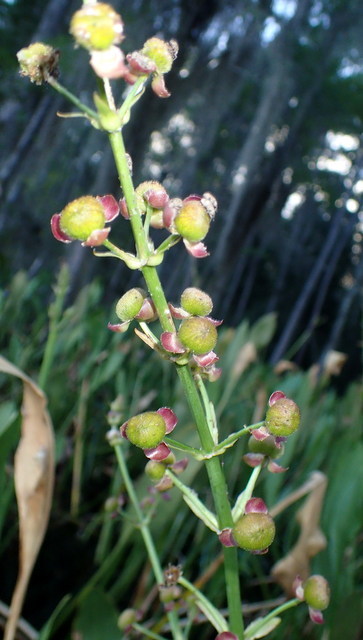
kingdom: Plantae
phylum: Tracheophyta
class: Liliopsida
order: Alismatales
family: Alismataceae
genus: Sagittaria
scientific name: Sagittaria lancifolia
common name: Lance-leaf arrowhead
